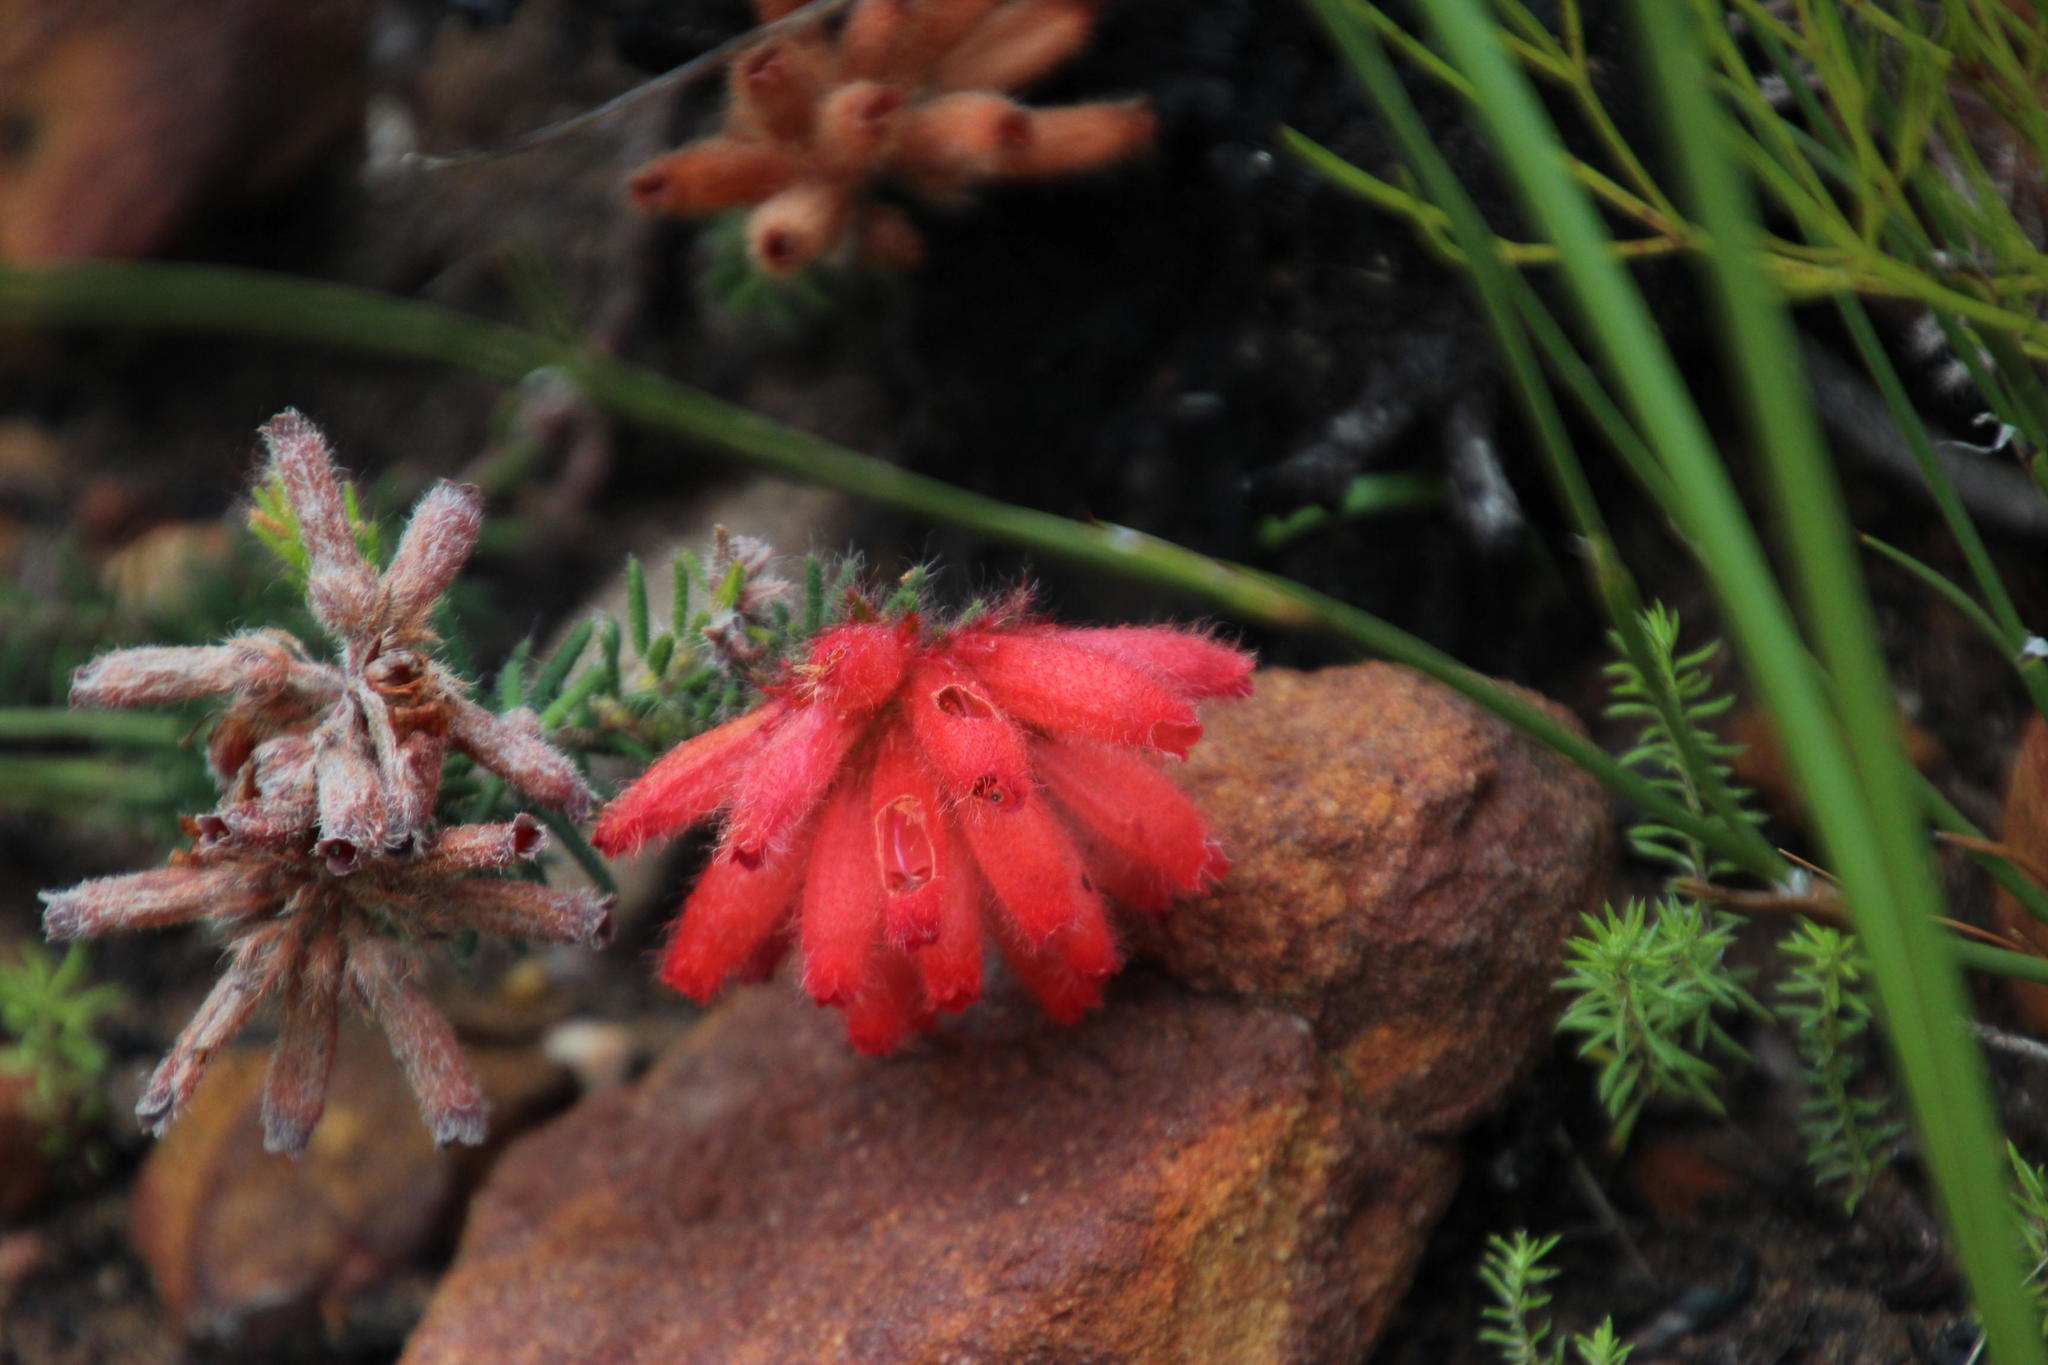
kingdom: Plantae
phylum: Tracheophyta
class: Magnoliopsida
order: Ericales
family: Ericaceae
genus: Erica
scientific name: Erica cerinthoides
